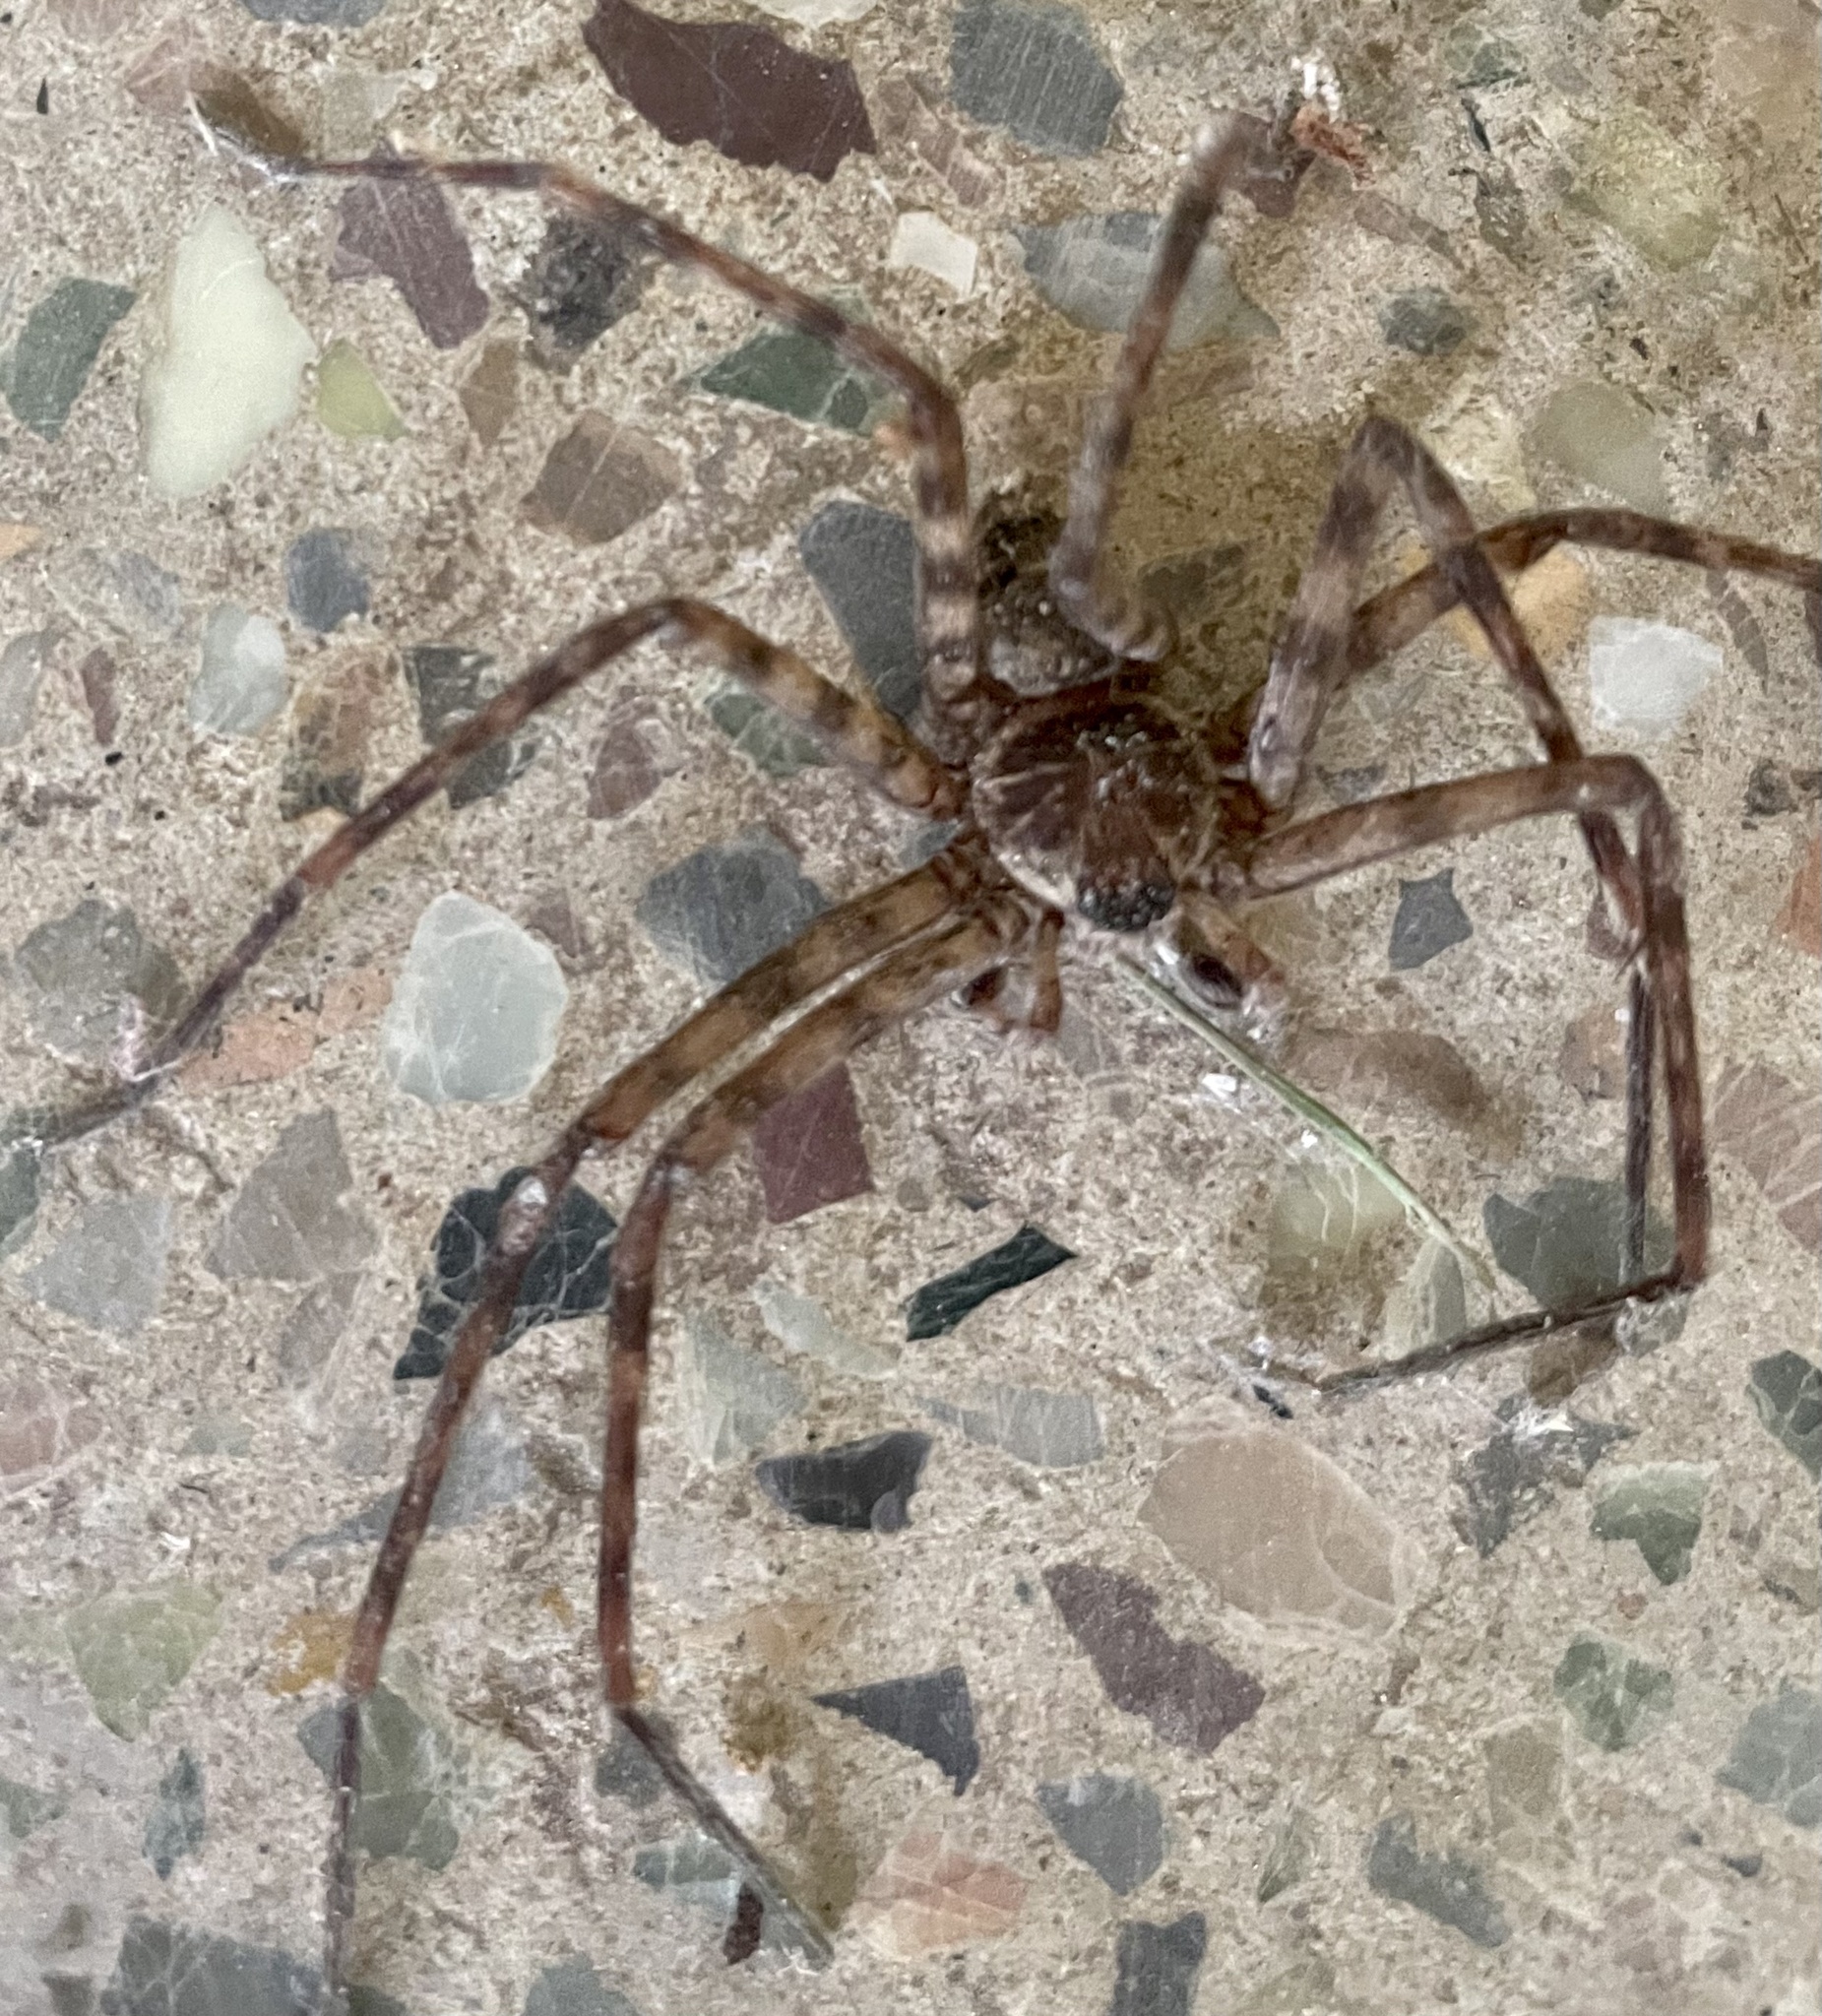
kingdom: Animalia
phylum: Arthropoda
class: Arachnida
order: Araneae
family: Sparassidae
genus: Heteropoda
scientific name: Heteropoda venatoria
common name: Huntsman spider
